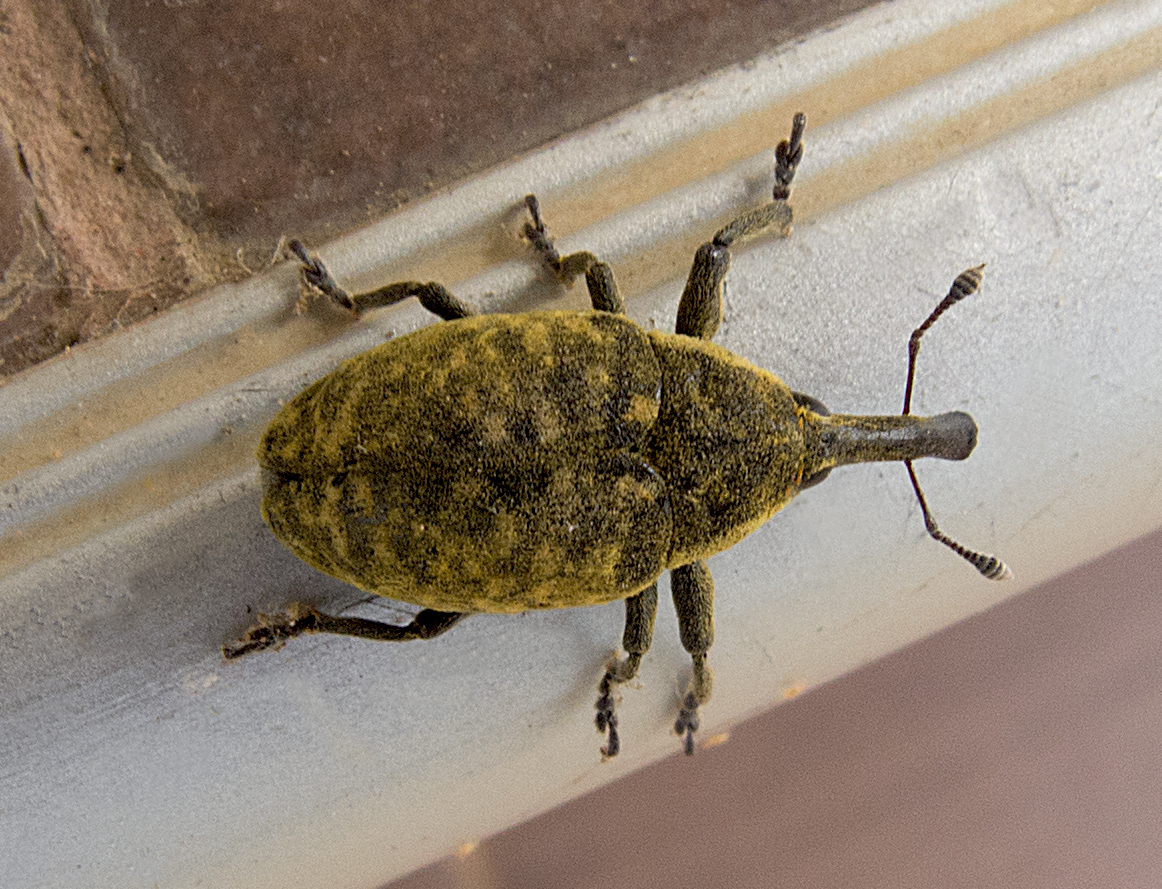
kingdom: Animalia
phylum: Arthropoda
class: Insecta
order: Coleoptera
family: Curculionidae
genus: Larinus
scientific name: Larinus sturnus
